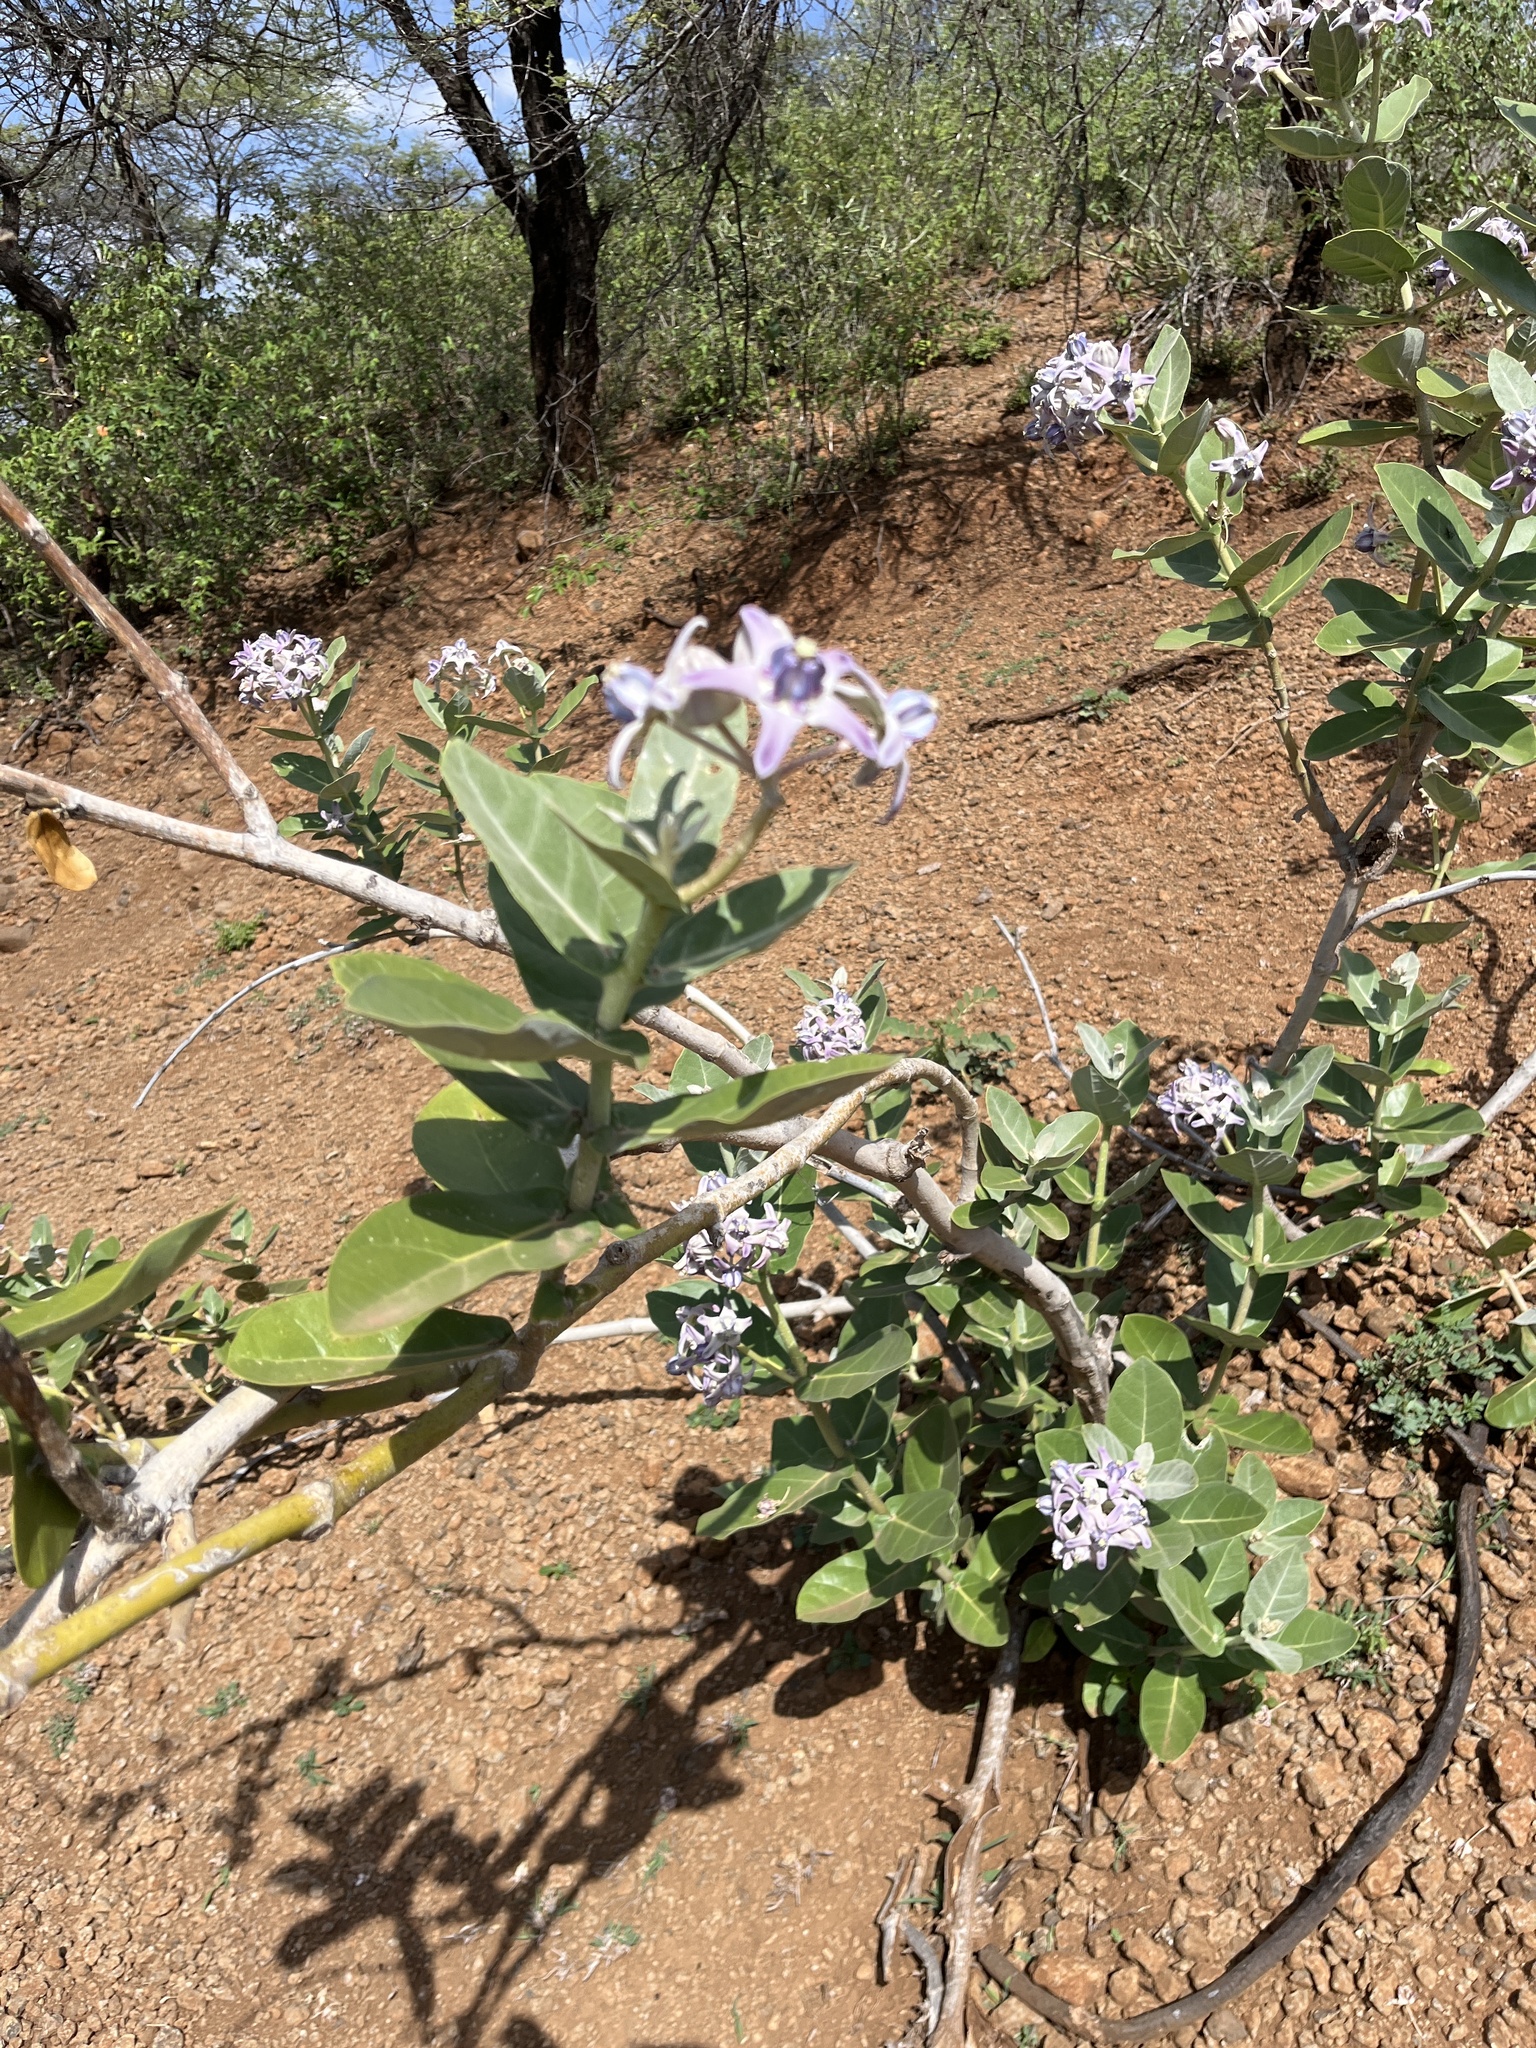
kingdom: Plantae
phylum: Tracheophyta
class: Magnoliopsida
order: Gentianales
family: Apocynaceae
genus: Calotropis
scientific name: Calotropis gigantea
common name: Crown flower
